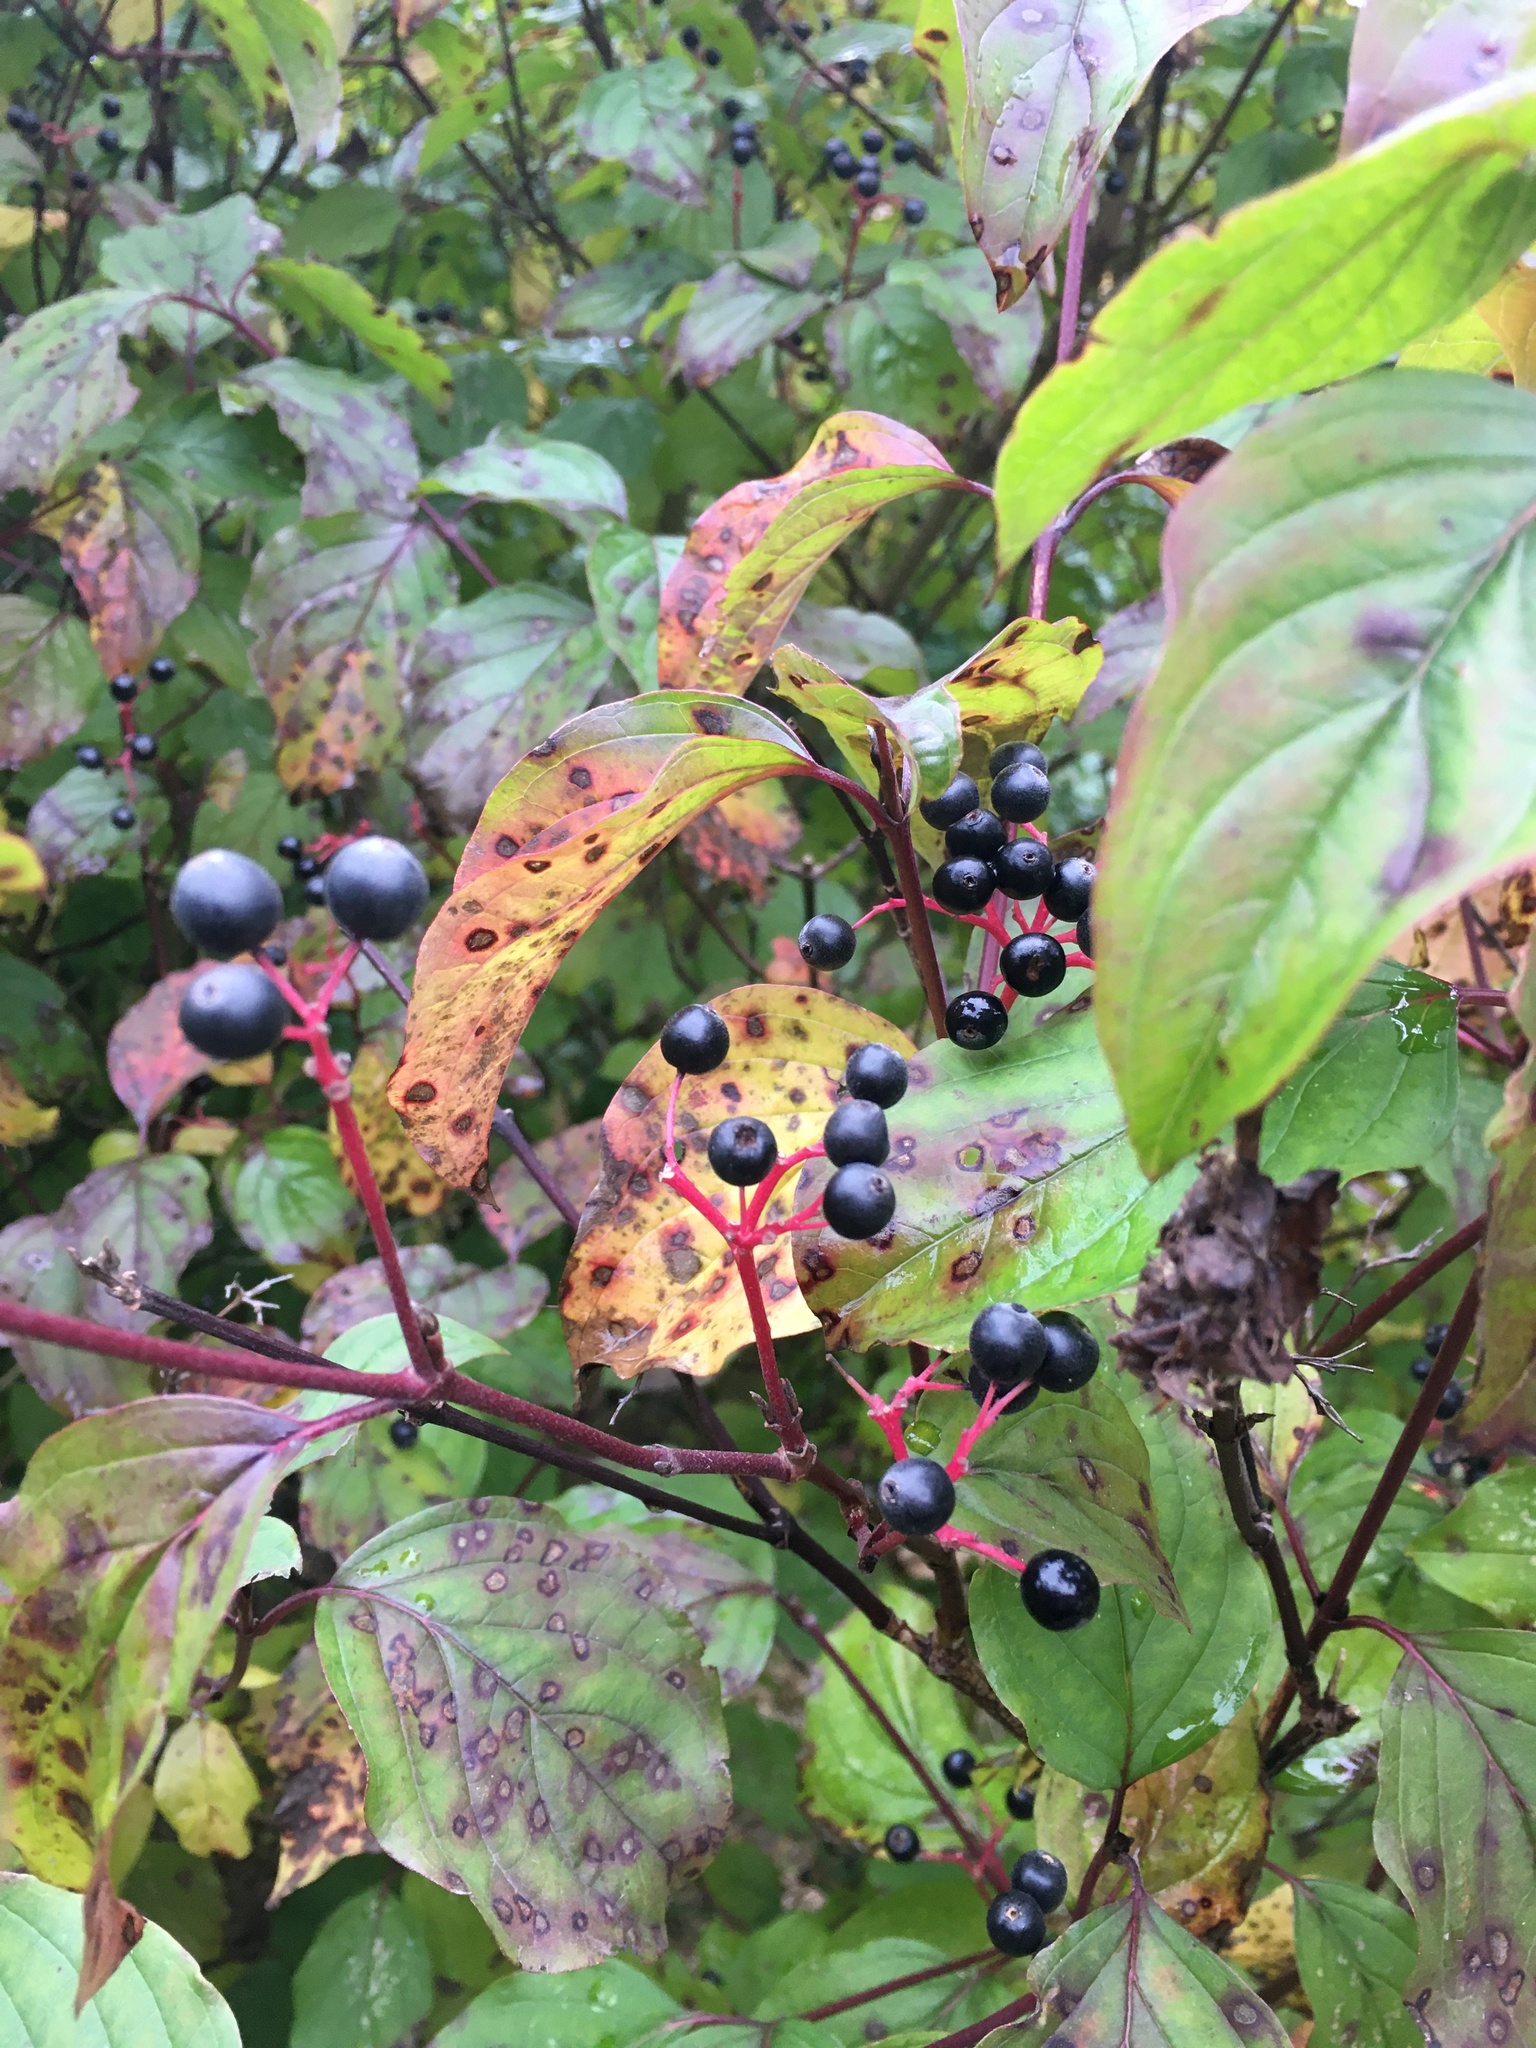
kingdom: Plantae
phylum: Tracheophyta
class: Magnoliopsida
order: Cornales
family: Cornaceae
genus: Cornus
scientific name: Cornus sanguinea
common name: Dogwood
